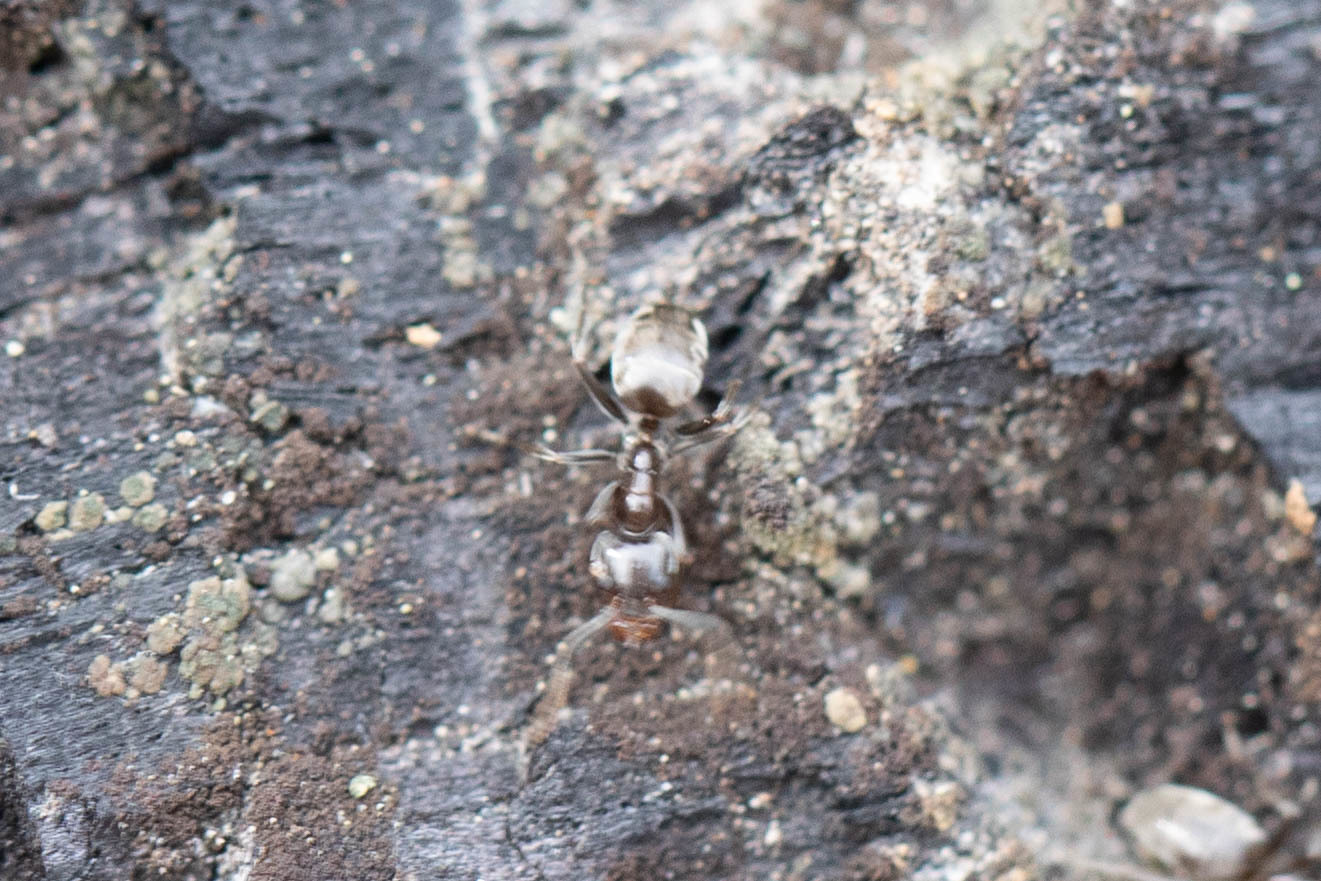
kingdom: Animalia
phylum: Arthropoda
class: Insecta
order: Hymenoptera
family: Formicidae
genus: Liometopum
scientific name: Liometopum luctuosum
